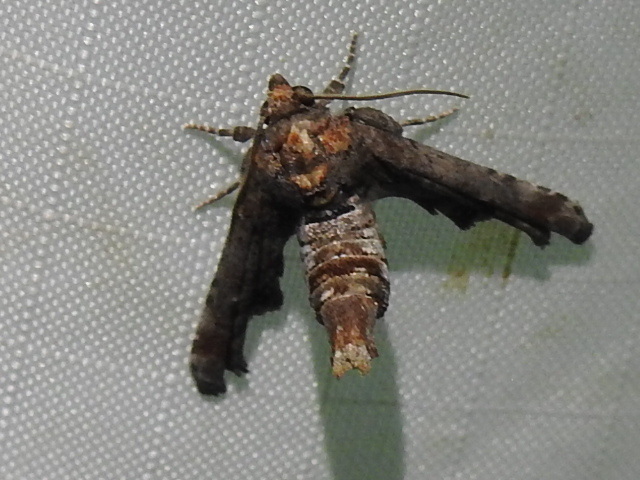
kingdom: Animalia
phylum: Arthropoda
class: Insecta
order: Lepidoptera
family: Euteliidae
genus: Marathyssa
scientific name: Marathyssa inficita
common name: Dark marathyssa moth
